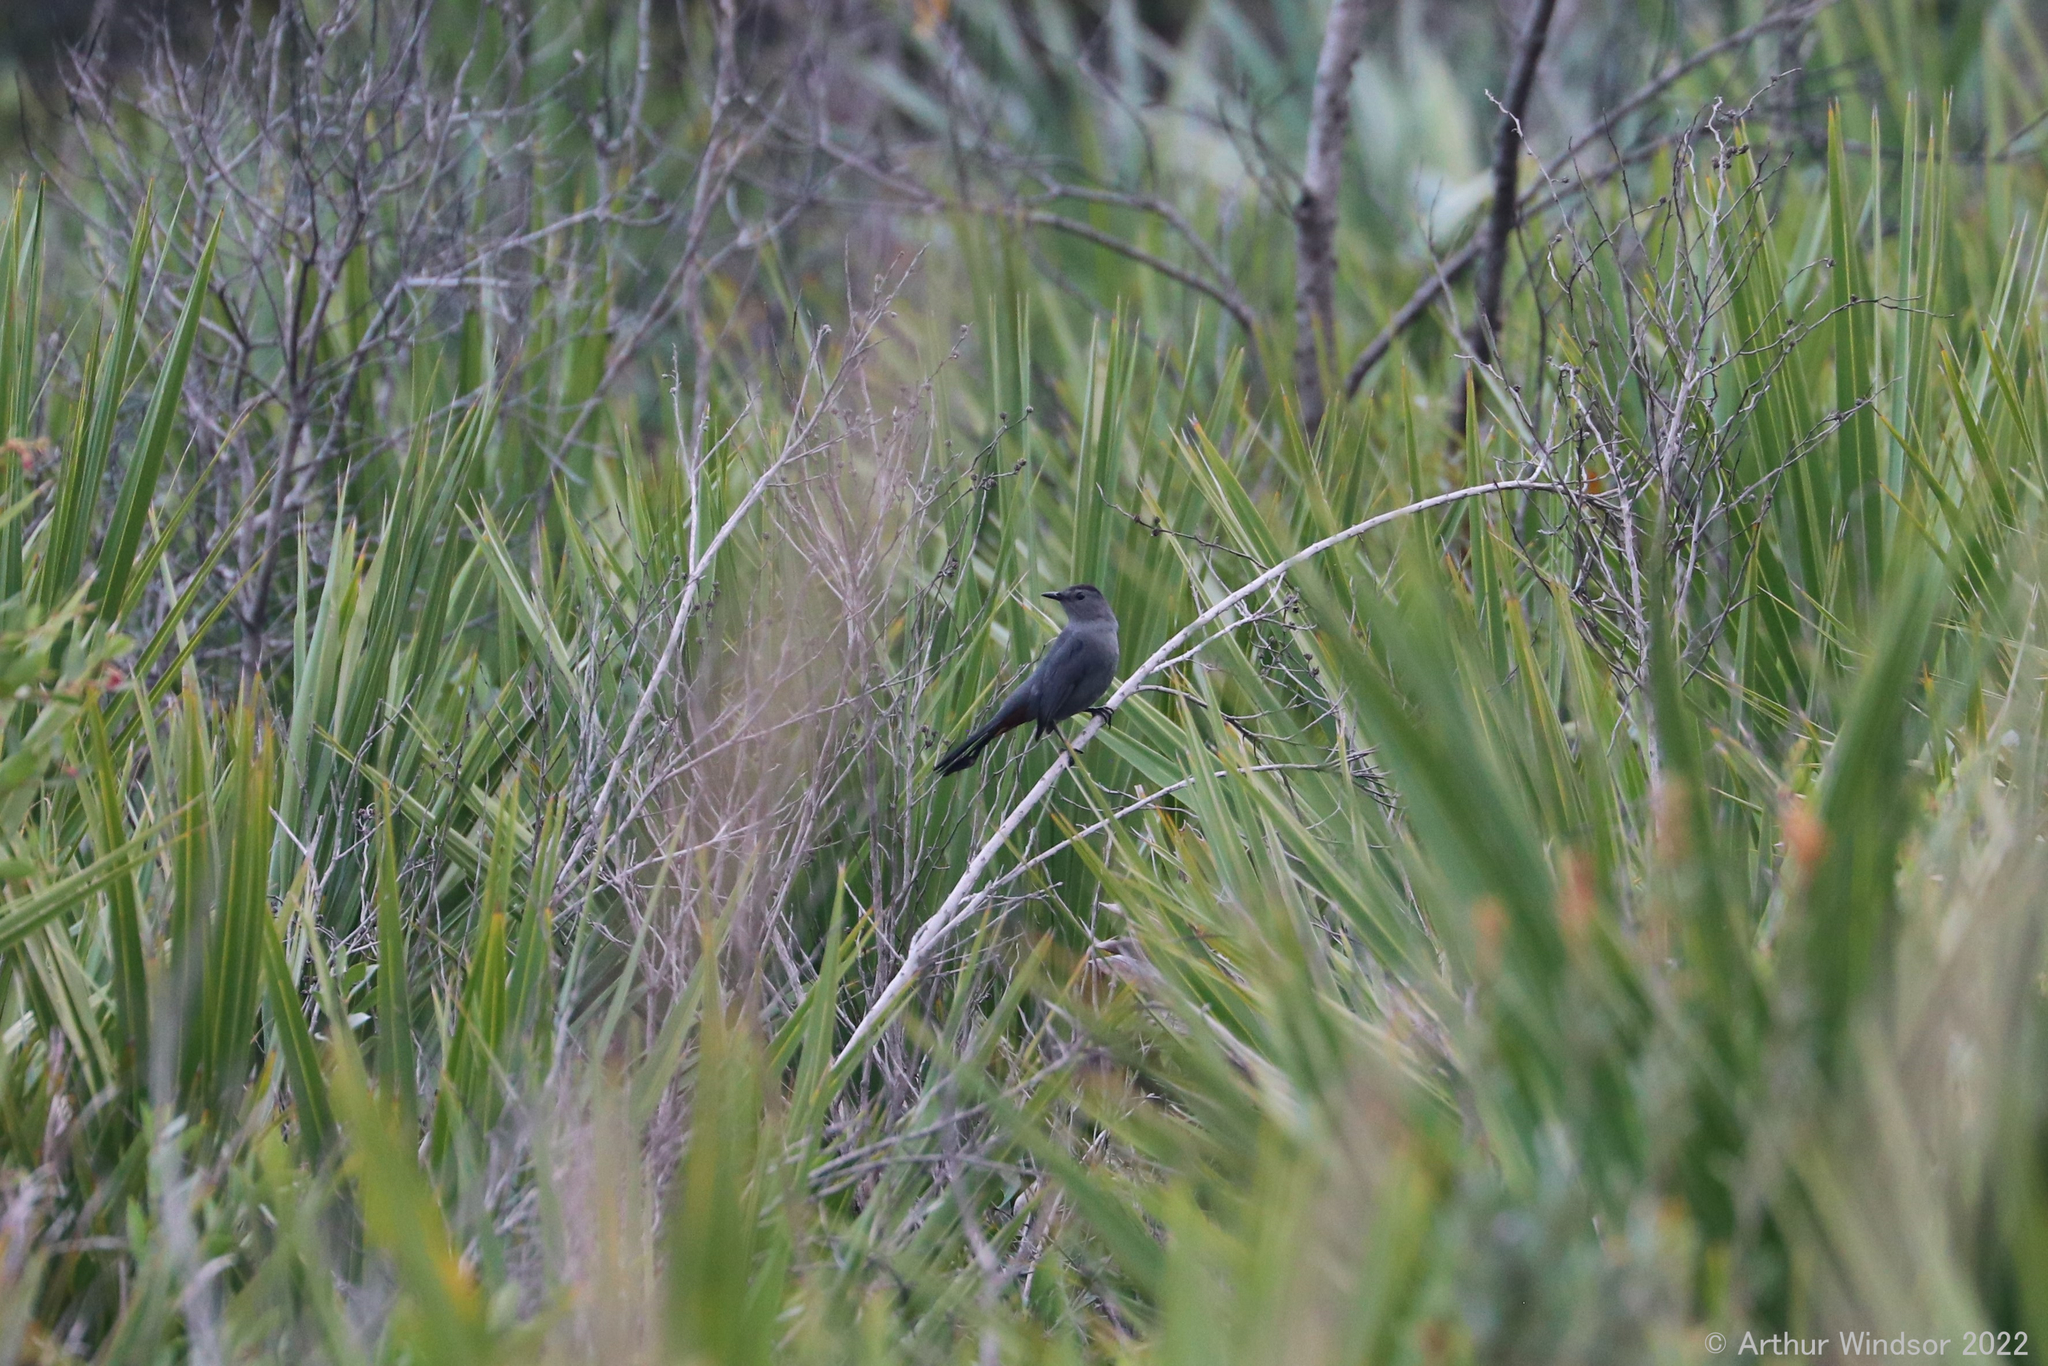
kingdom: Animalia
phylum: Chordata
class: Aves
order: Passeriformes
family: Mimidae
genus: Dumetella
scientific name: Dumetella carolinensis
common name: Gray catbird
